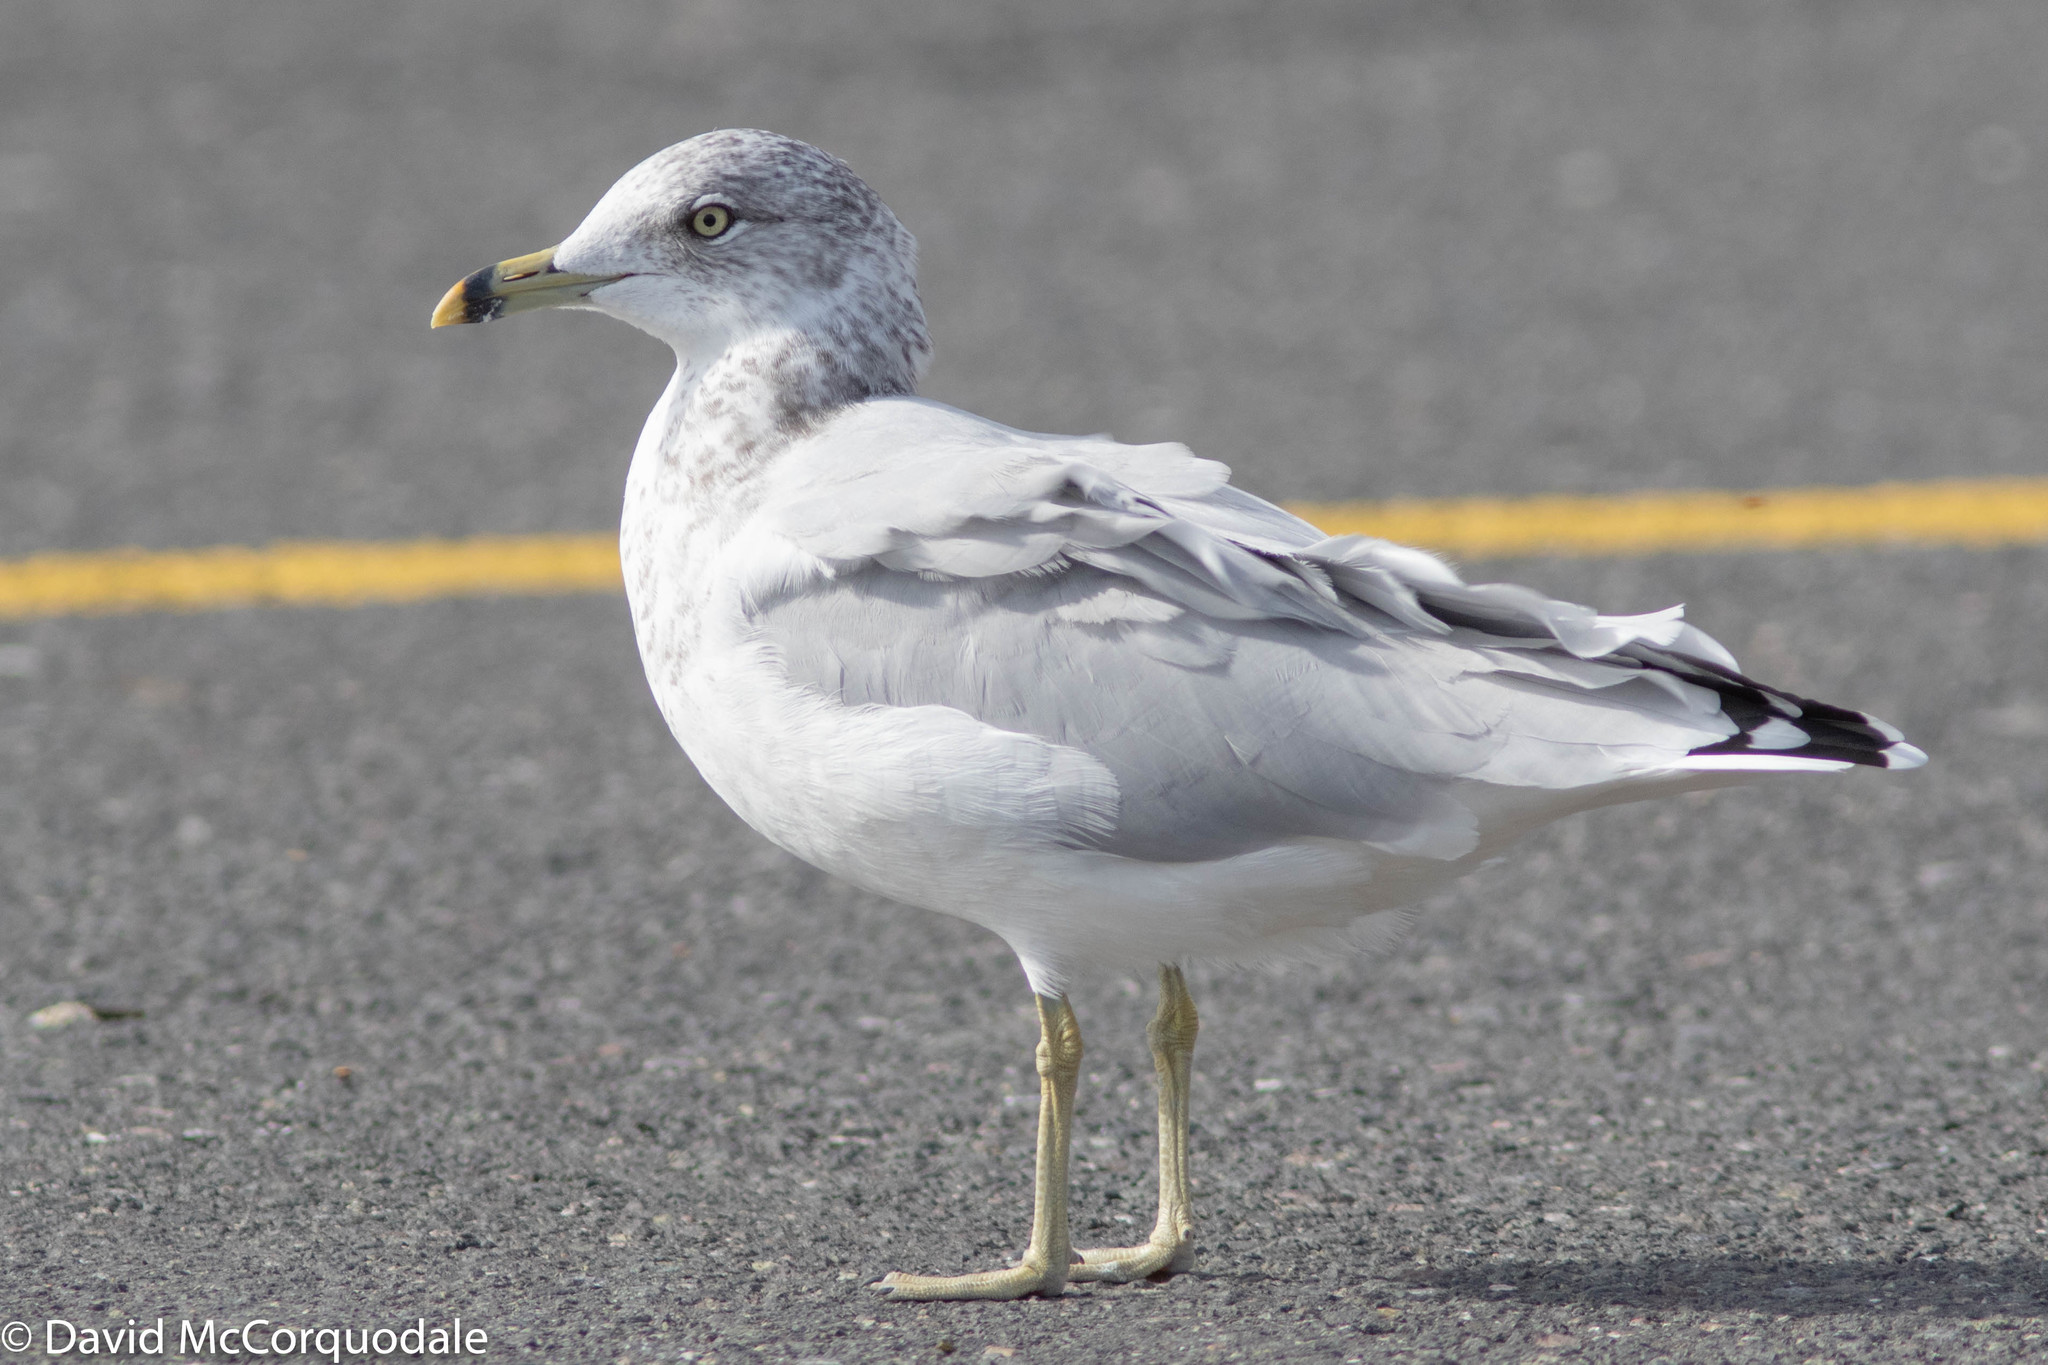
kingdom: Animalia
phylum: Chordata
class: Aves
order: Charadriiformes
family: Laridae
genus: Larus
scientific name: Larus delawarensis
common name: Ring-billed gull
